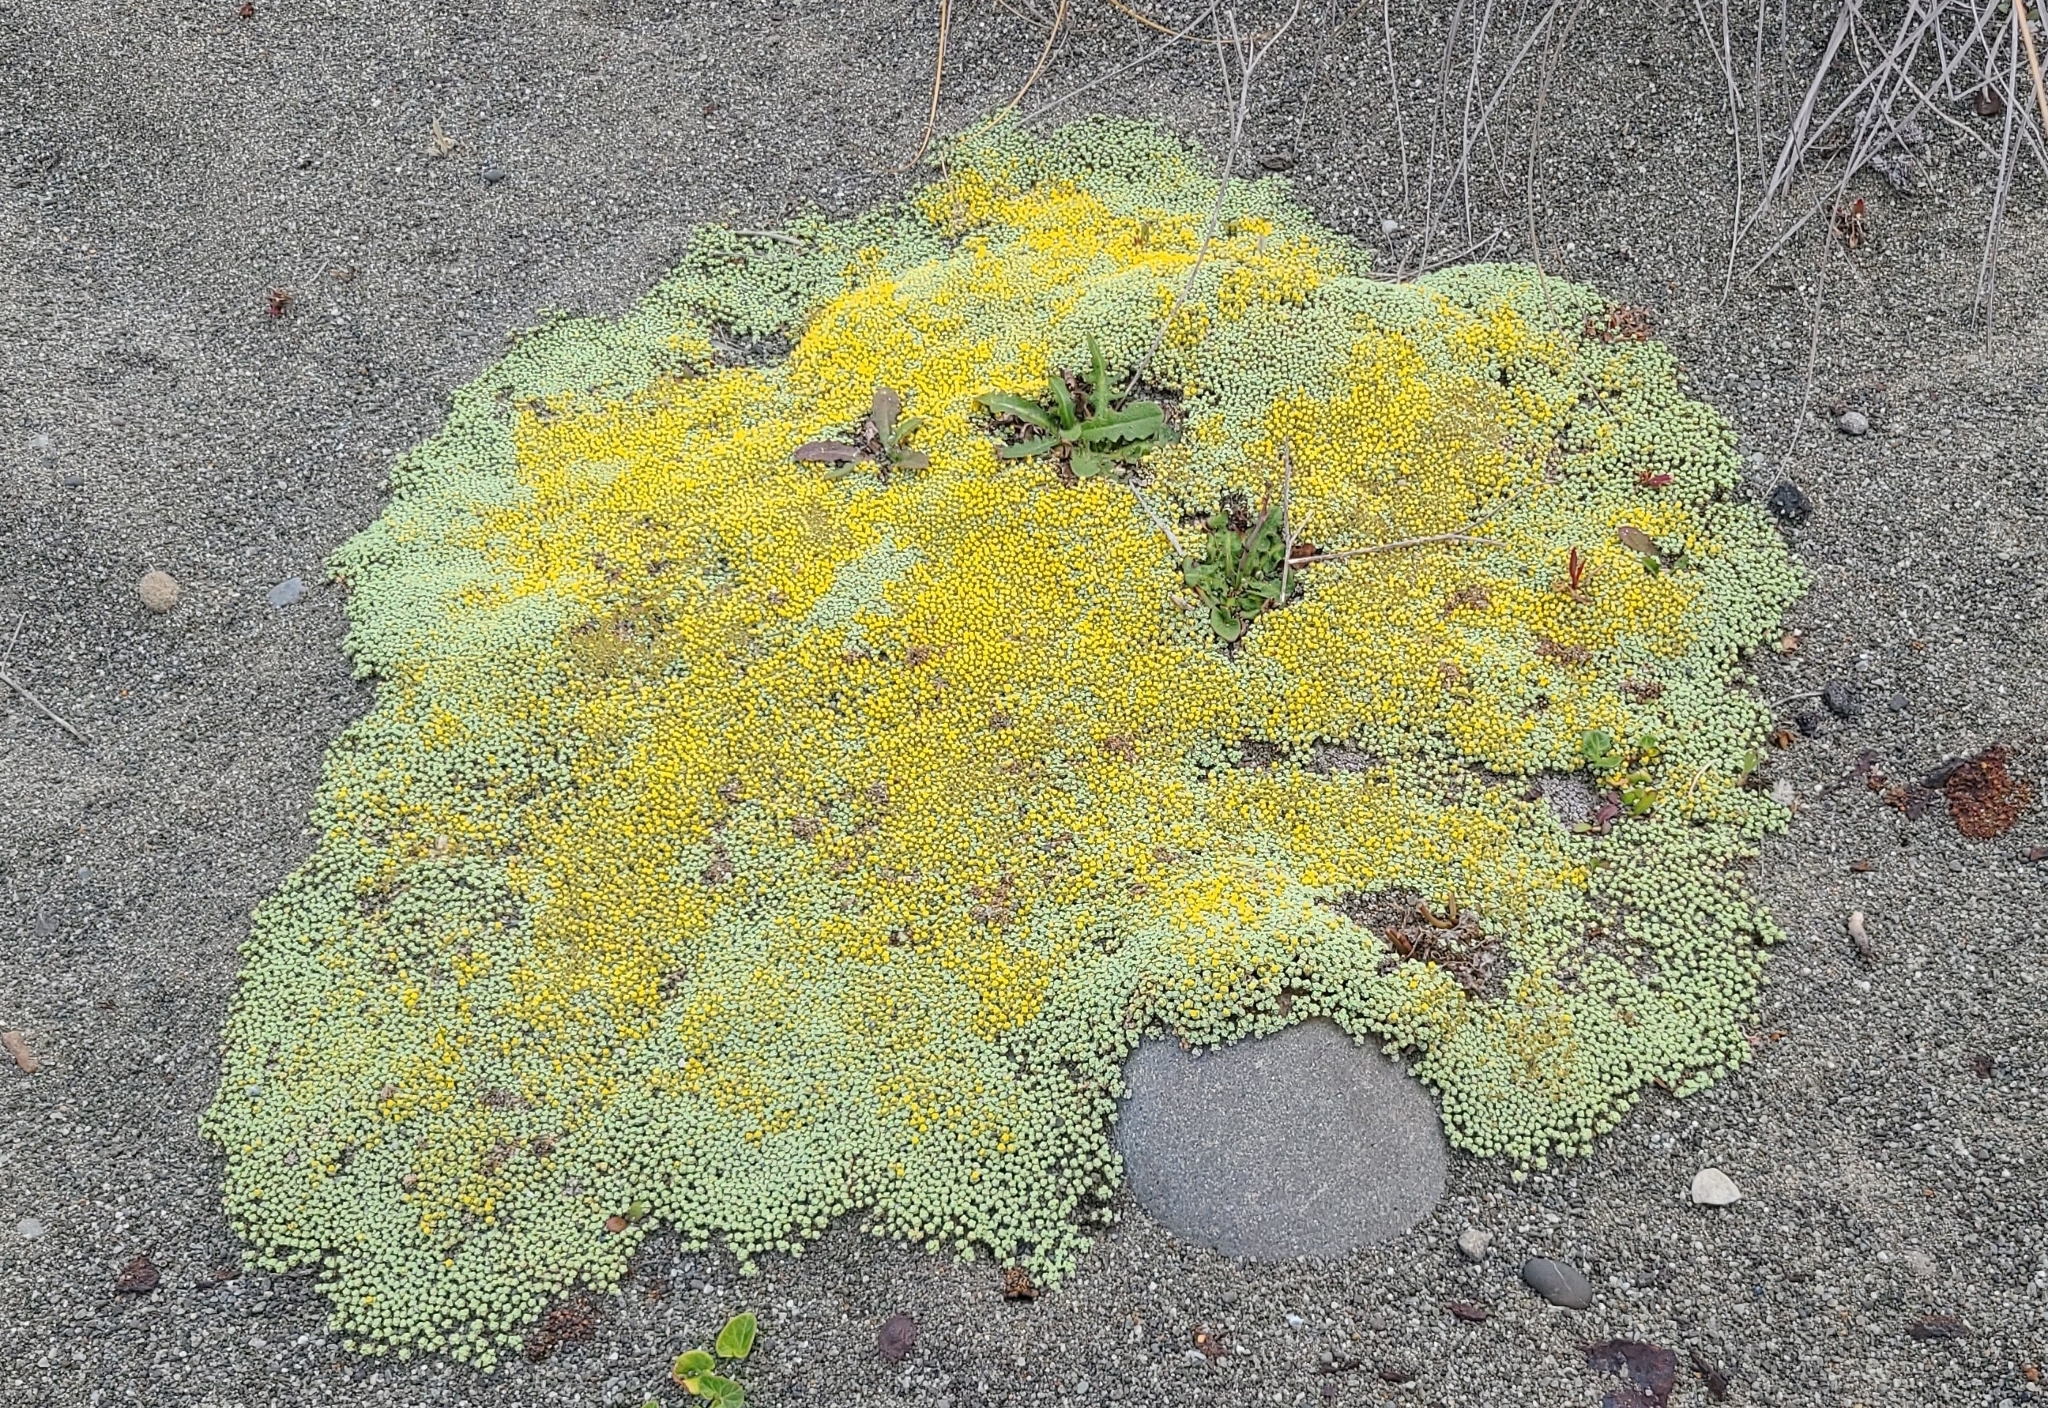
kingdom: Plantae
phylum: Tracheophyta
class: Magnoliopsida
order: Asterales
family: Asteraceae
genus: Raoulia
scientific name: Raoulia australis
